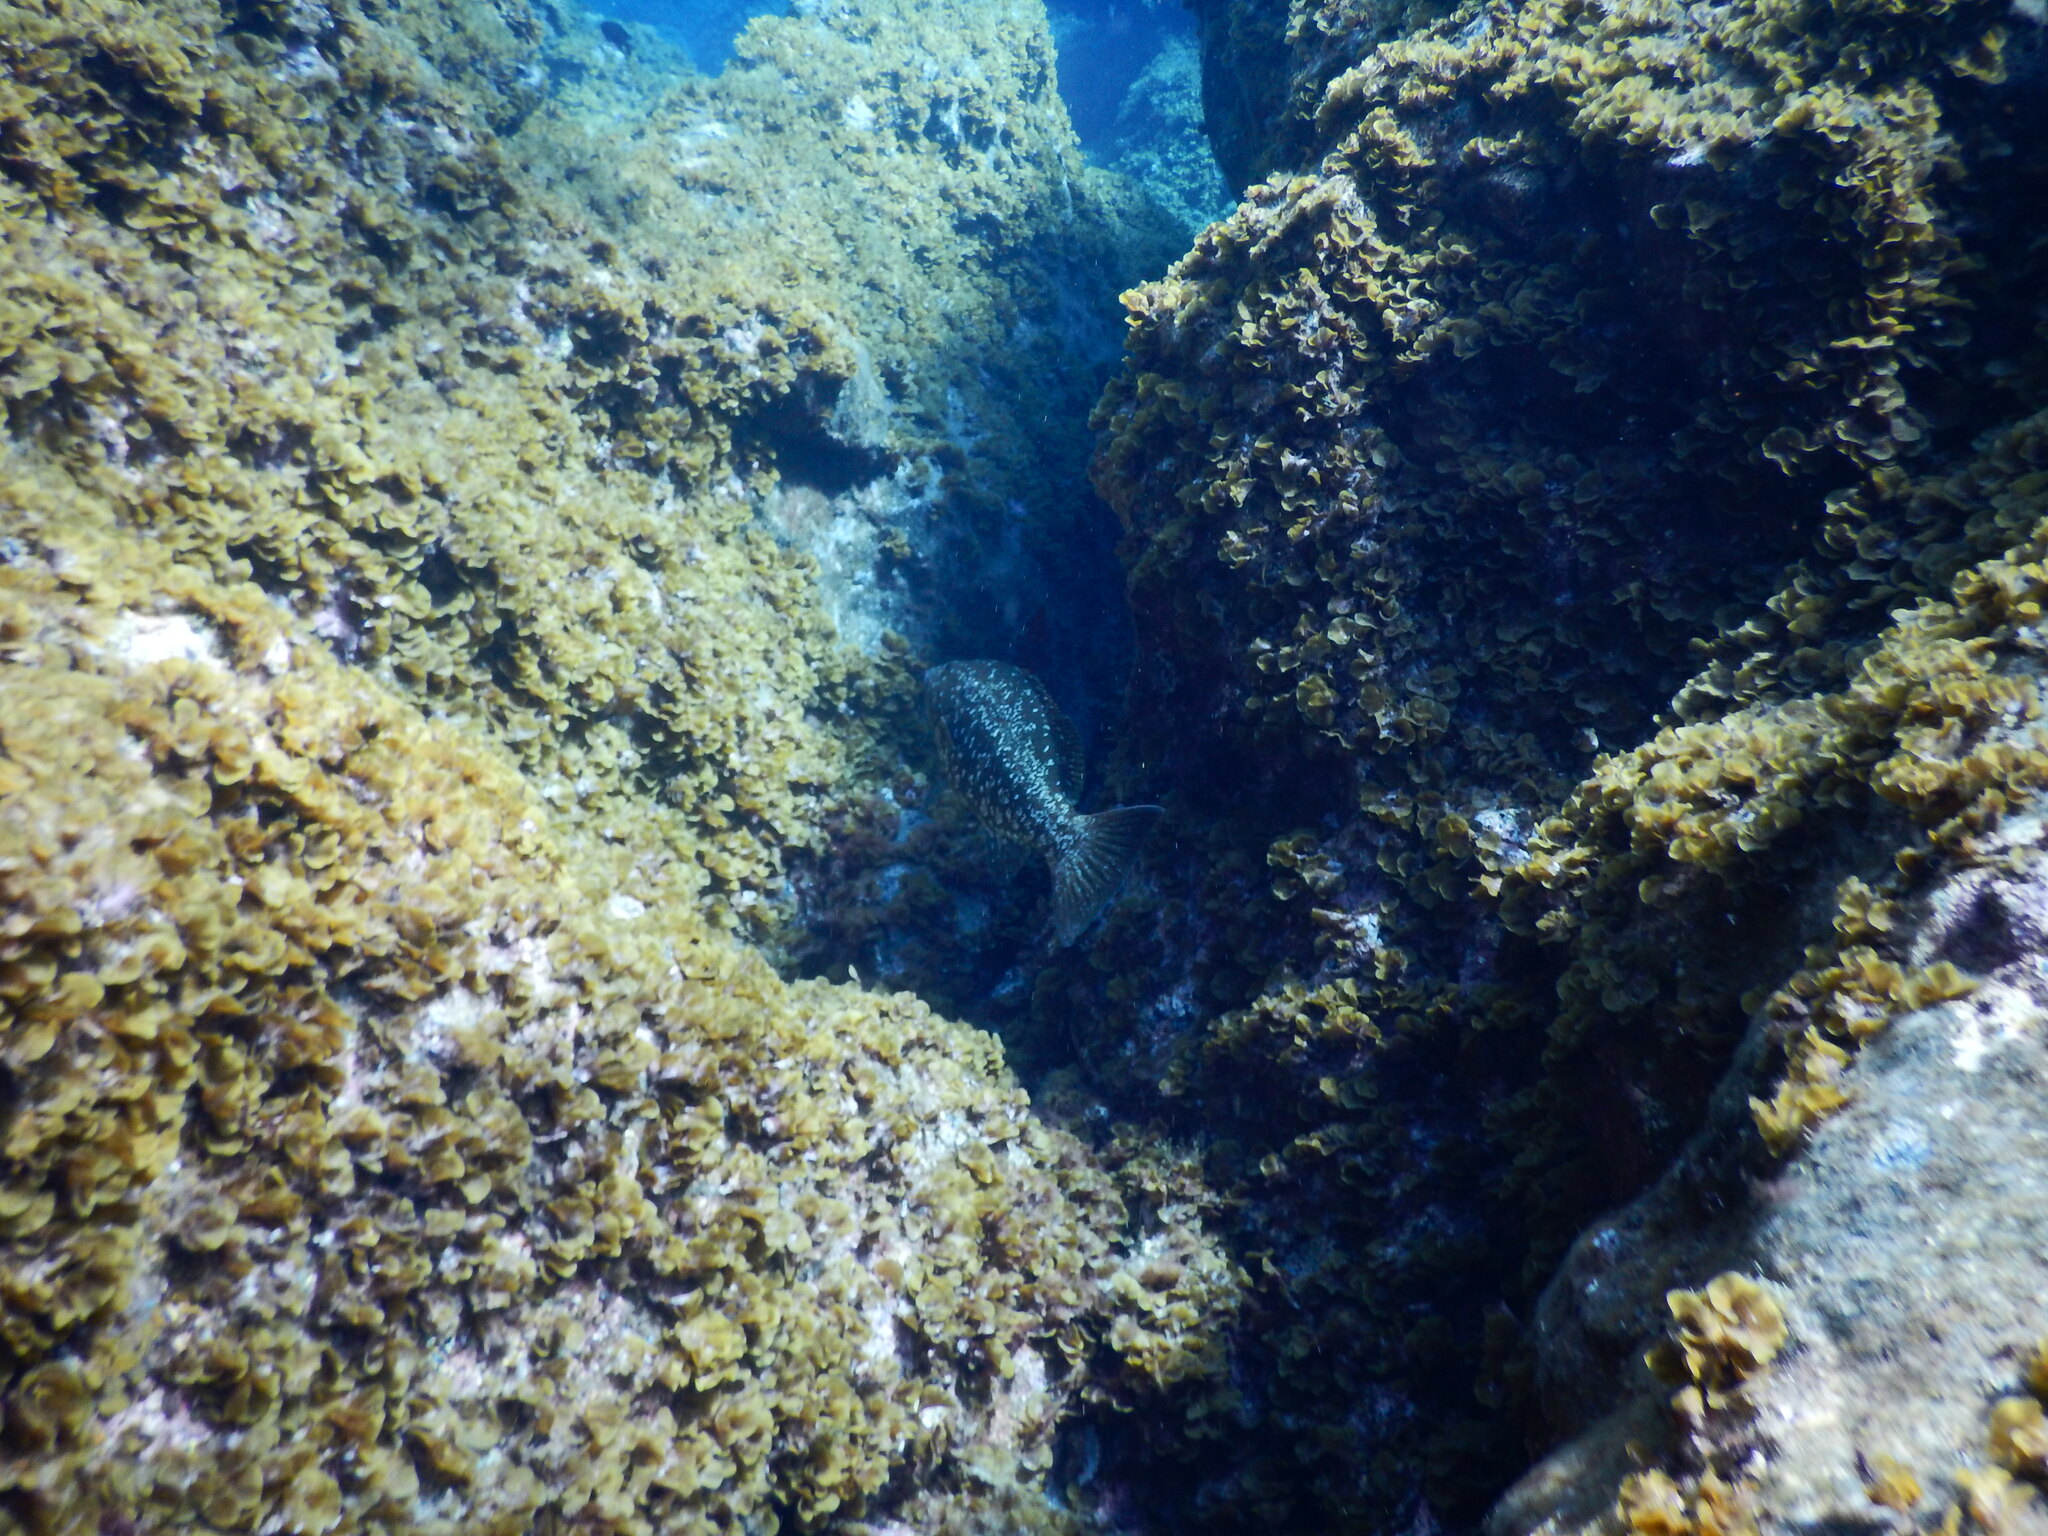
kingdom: Animalia
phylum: Chordata
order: Perciformes
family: Serranidae
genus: Mycteroperca
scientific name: Mycteroperca fusca
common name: Island grouper
